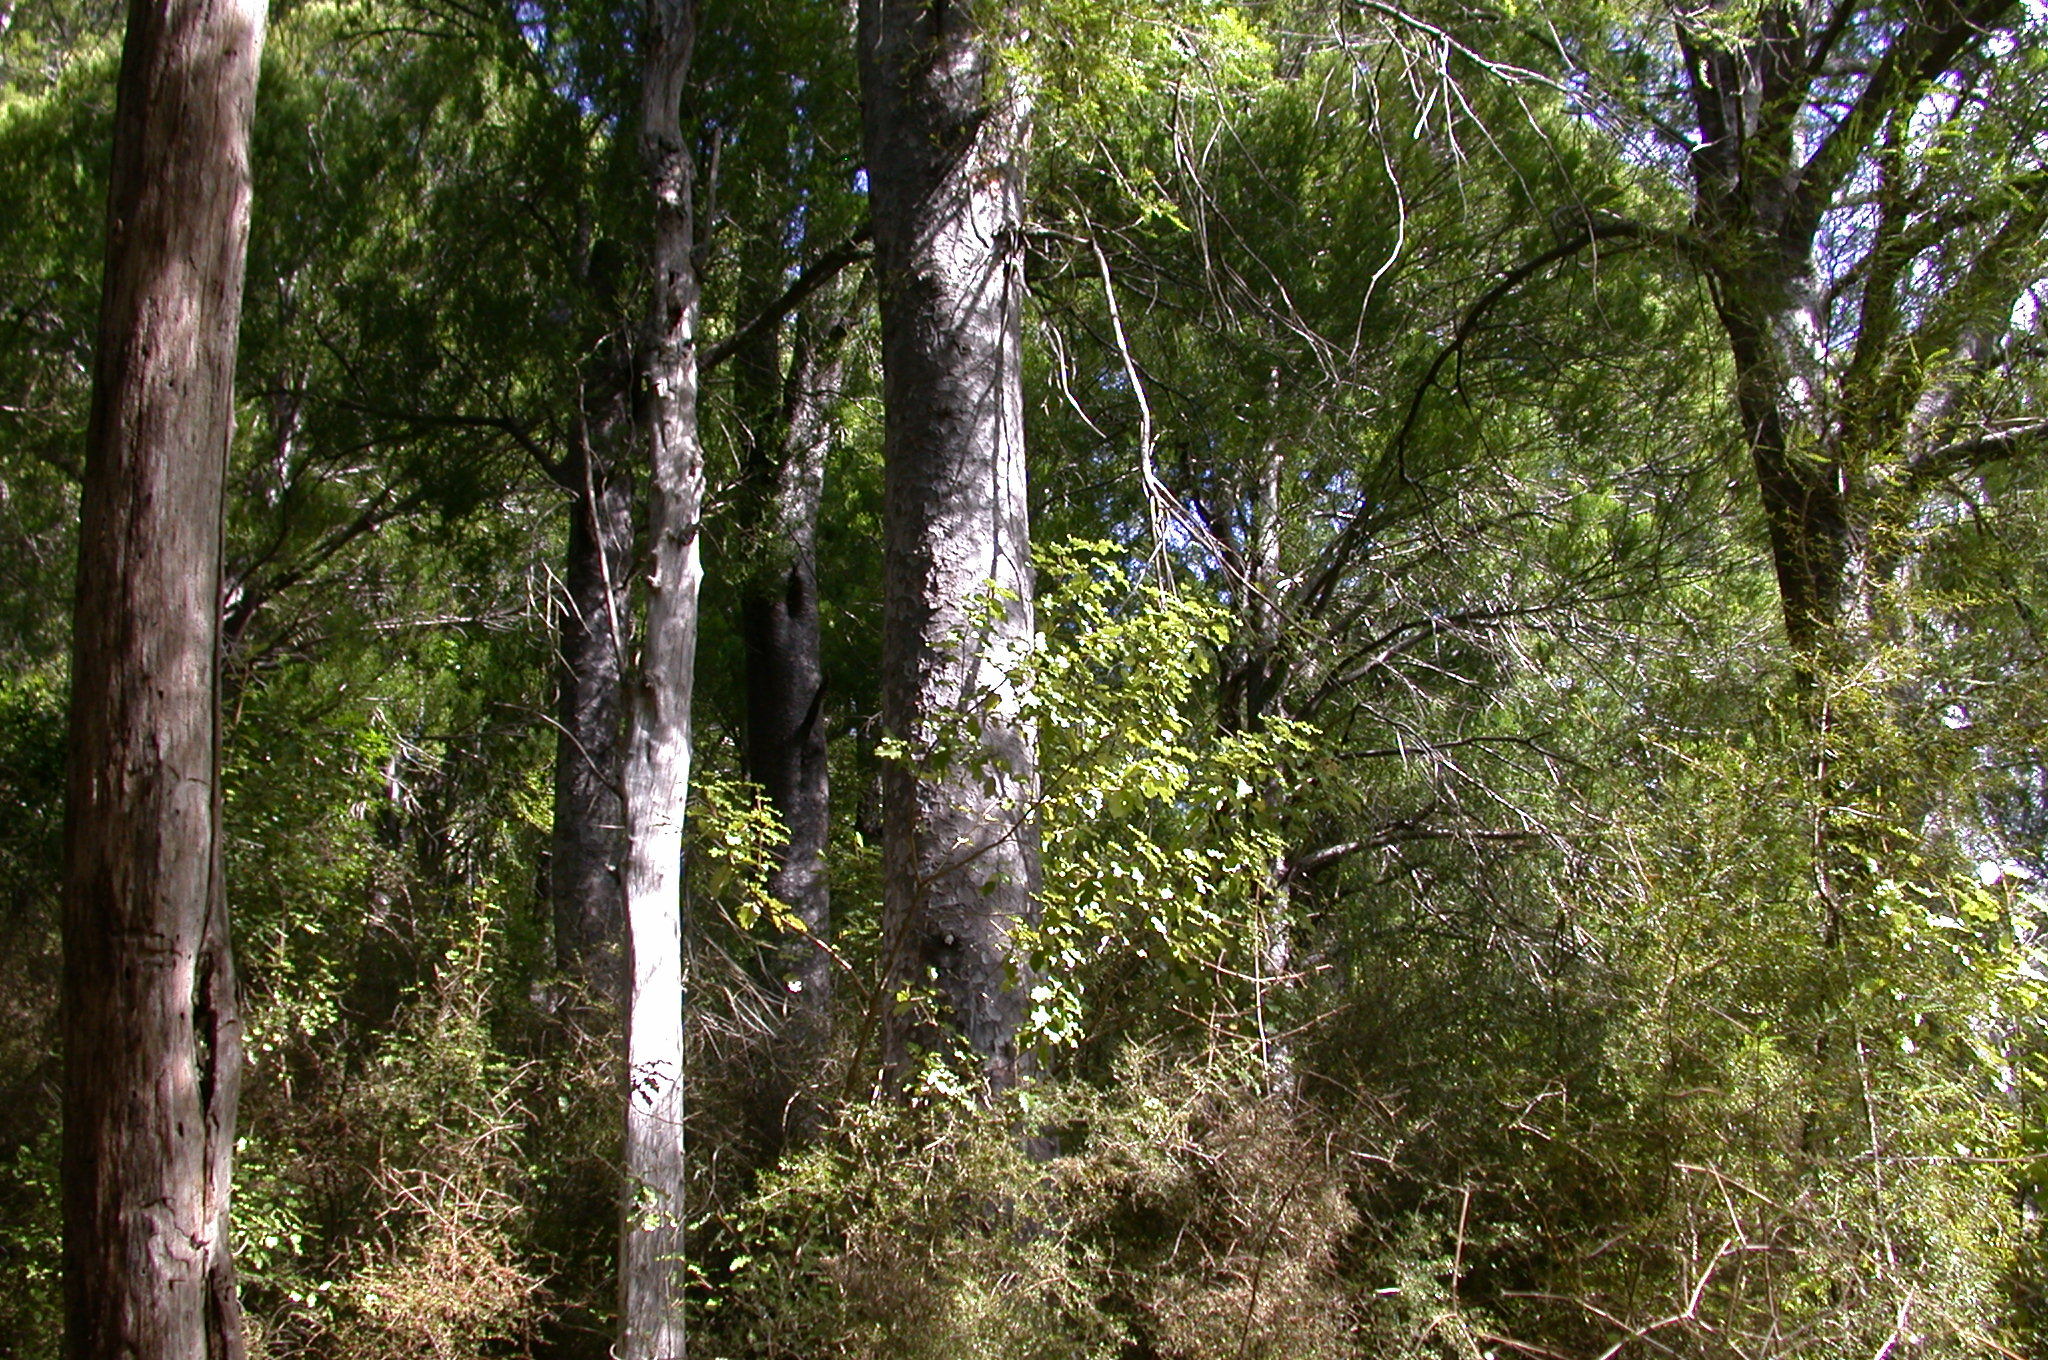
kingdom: Plantae
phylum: Tracheophyta
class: Pinopsida
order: Pinales
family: Podocarpaceae
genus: Prumnopitys
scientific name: Prumnopitys taxifolia
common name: Matai
